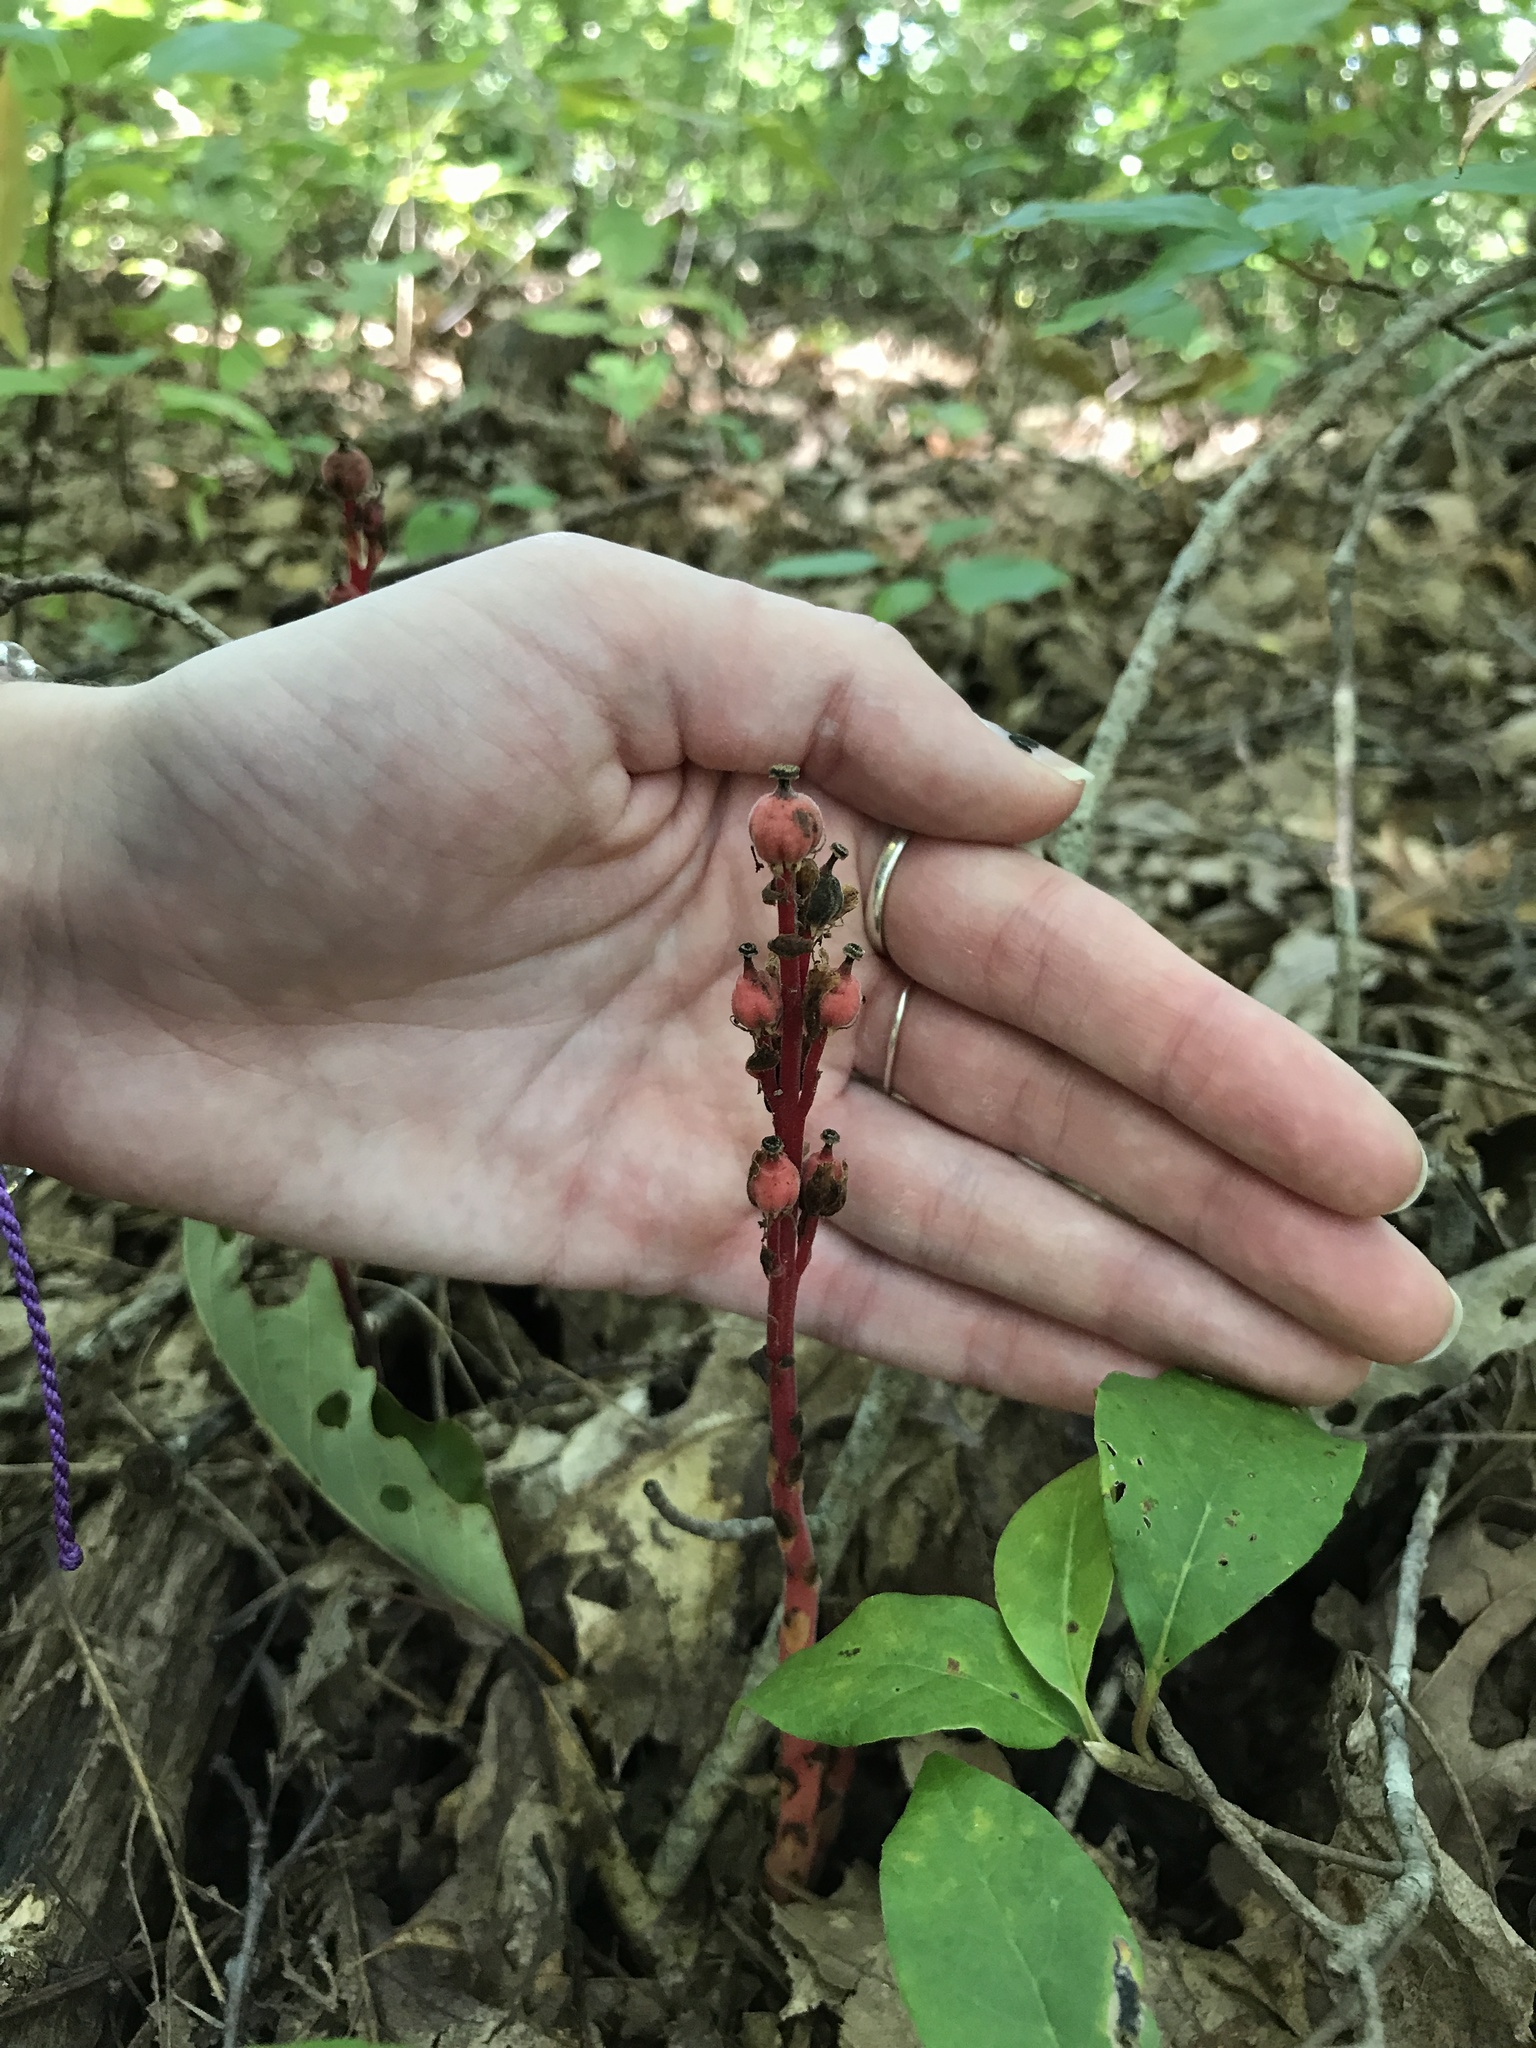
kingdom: Plantae
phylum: Tracheophyta
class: Magnoliopsida
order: Ericales
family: Ericaceae
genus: Hypopitys
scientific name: Hypopitys monotropa
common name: Yellow bird's-nest
